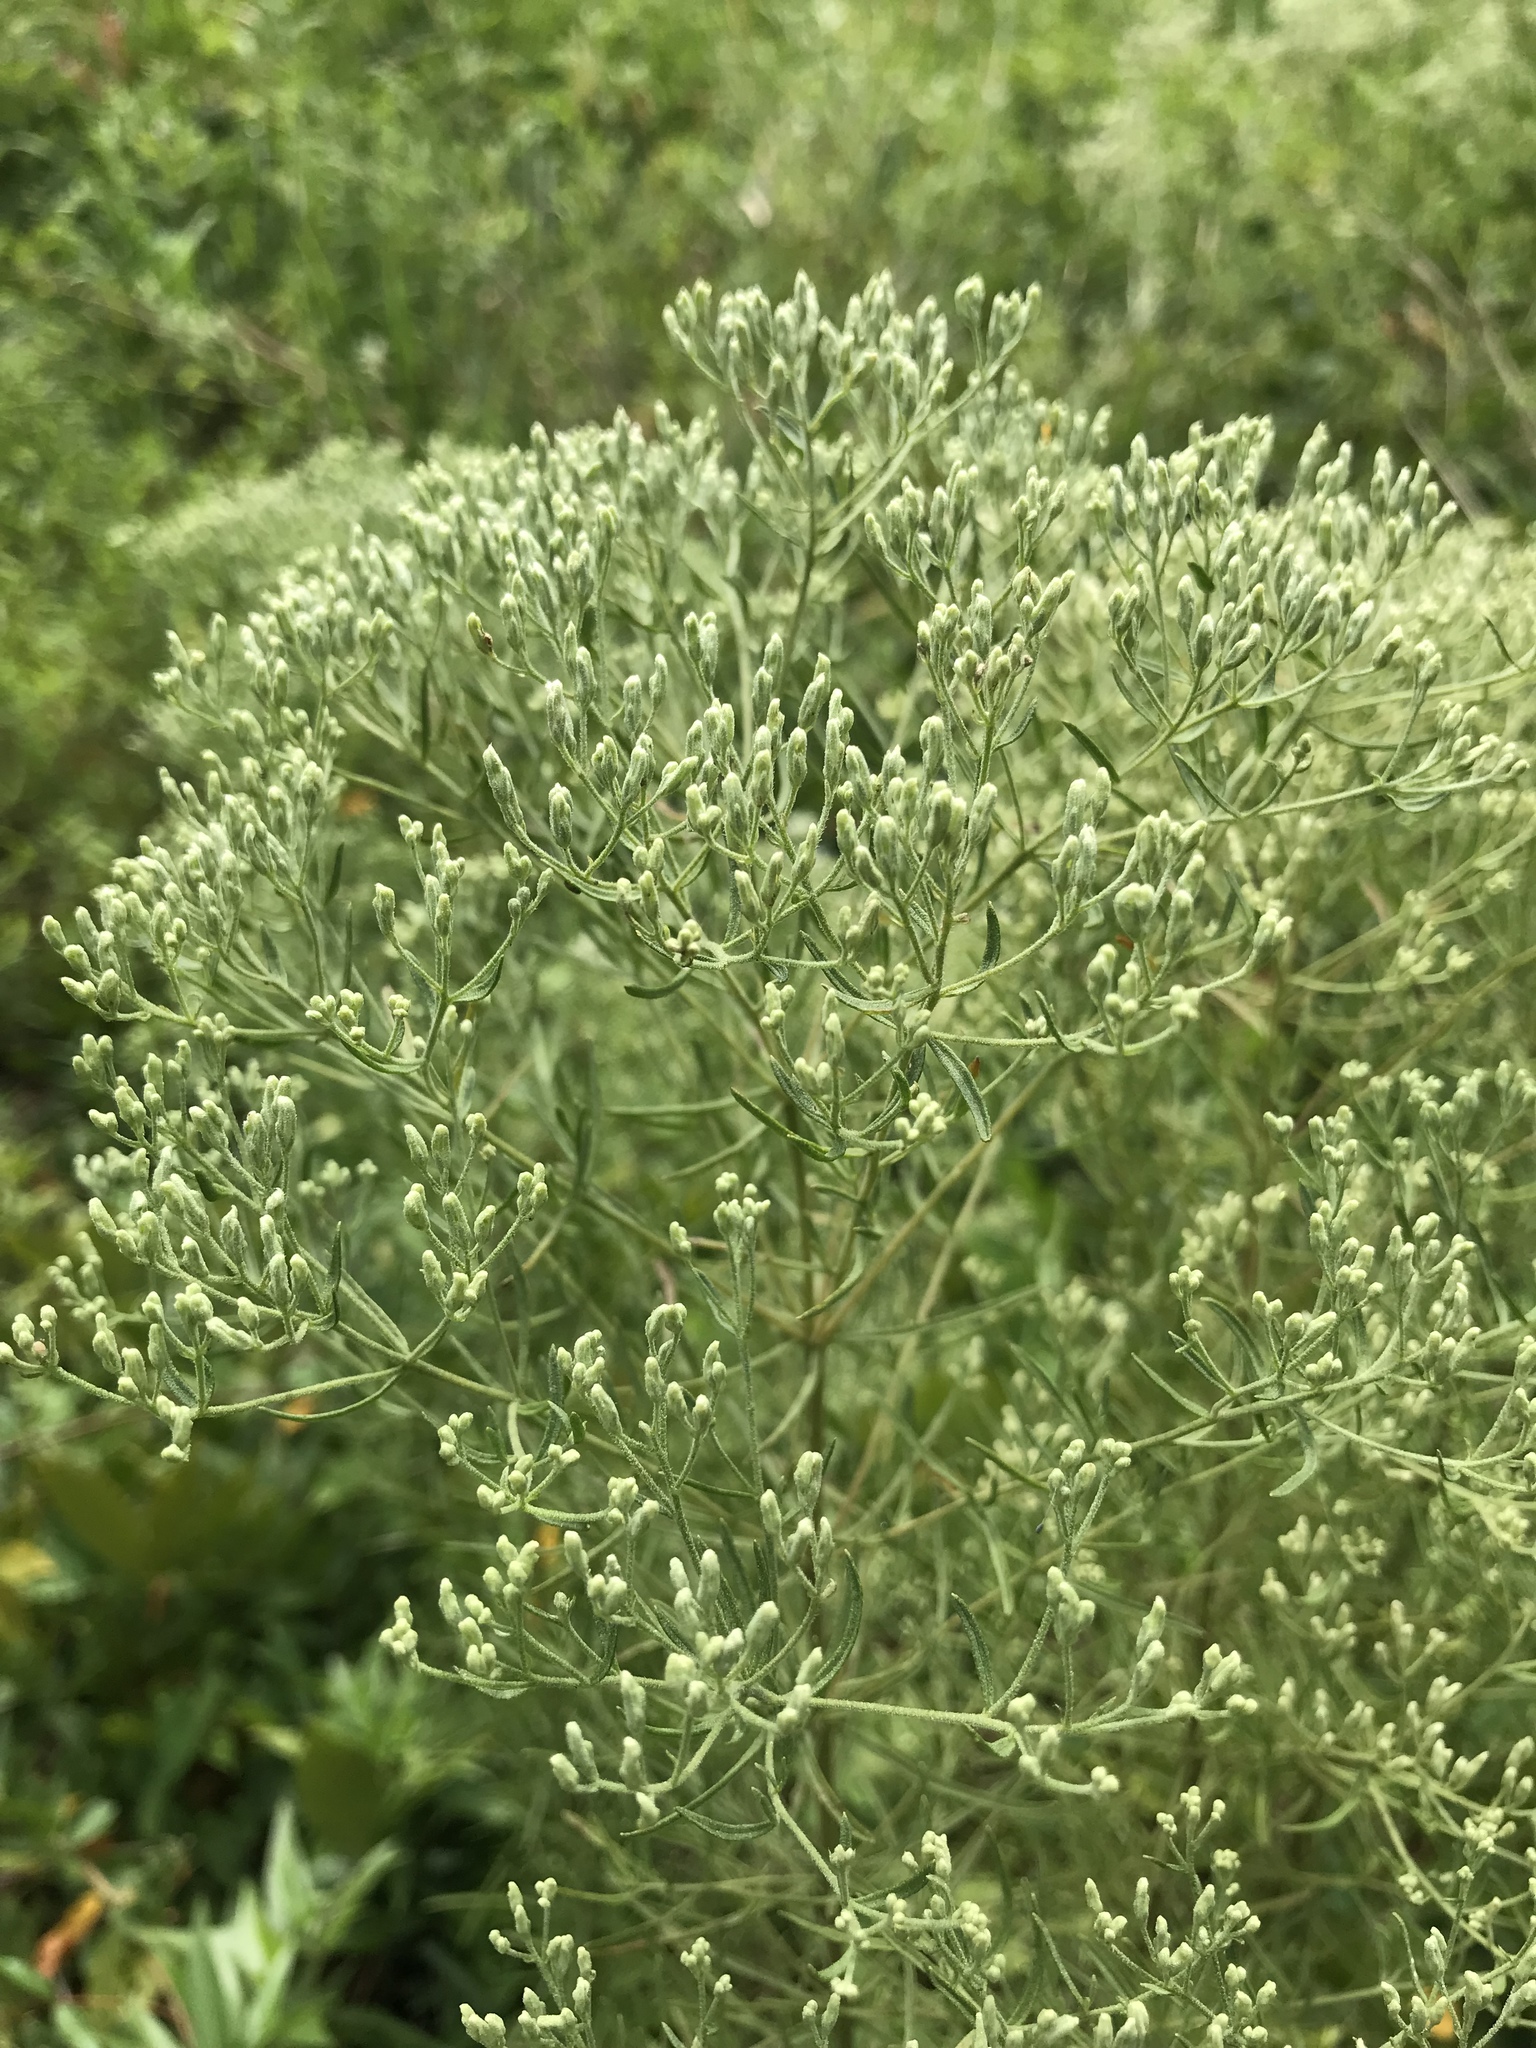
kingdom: Plantae
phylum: Tracheophyta
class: Magnoliopsida
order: Asterales
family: Asteraceae
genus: Eupatorium
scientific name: Eupatorium hyssopifolium
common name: Hyssop-leaf thoroughwort
